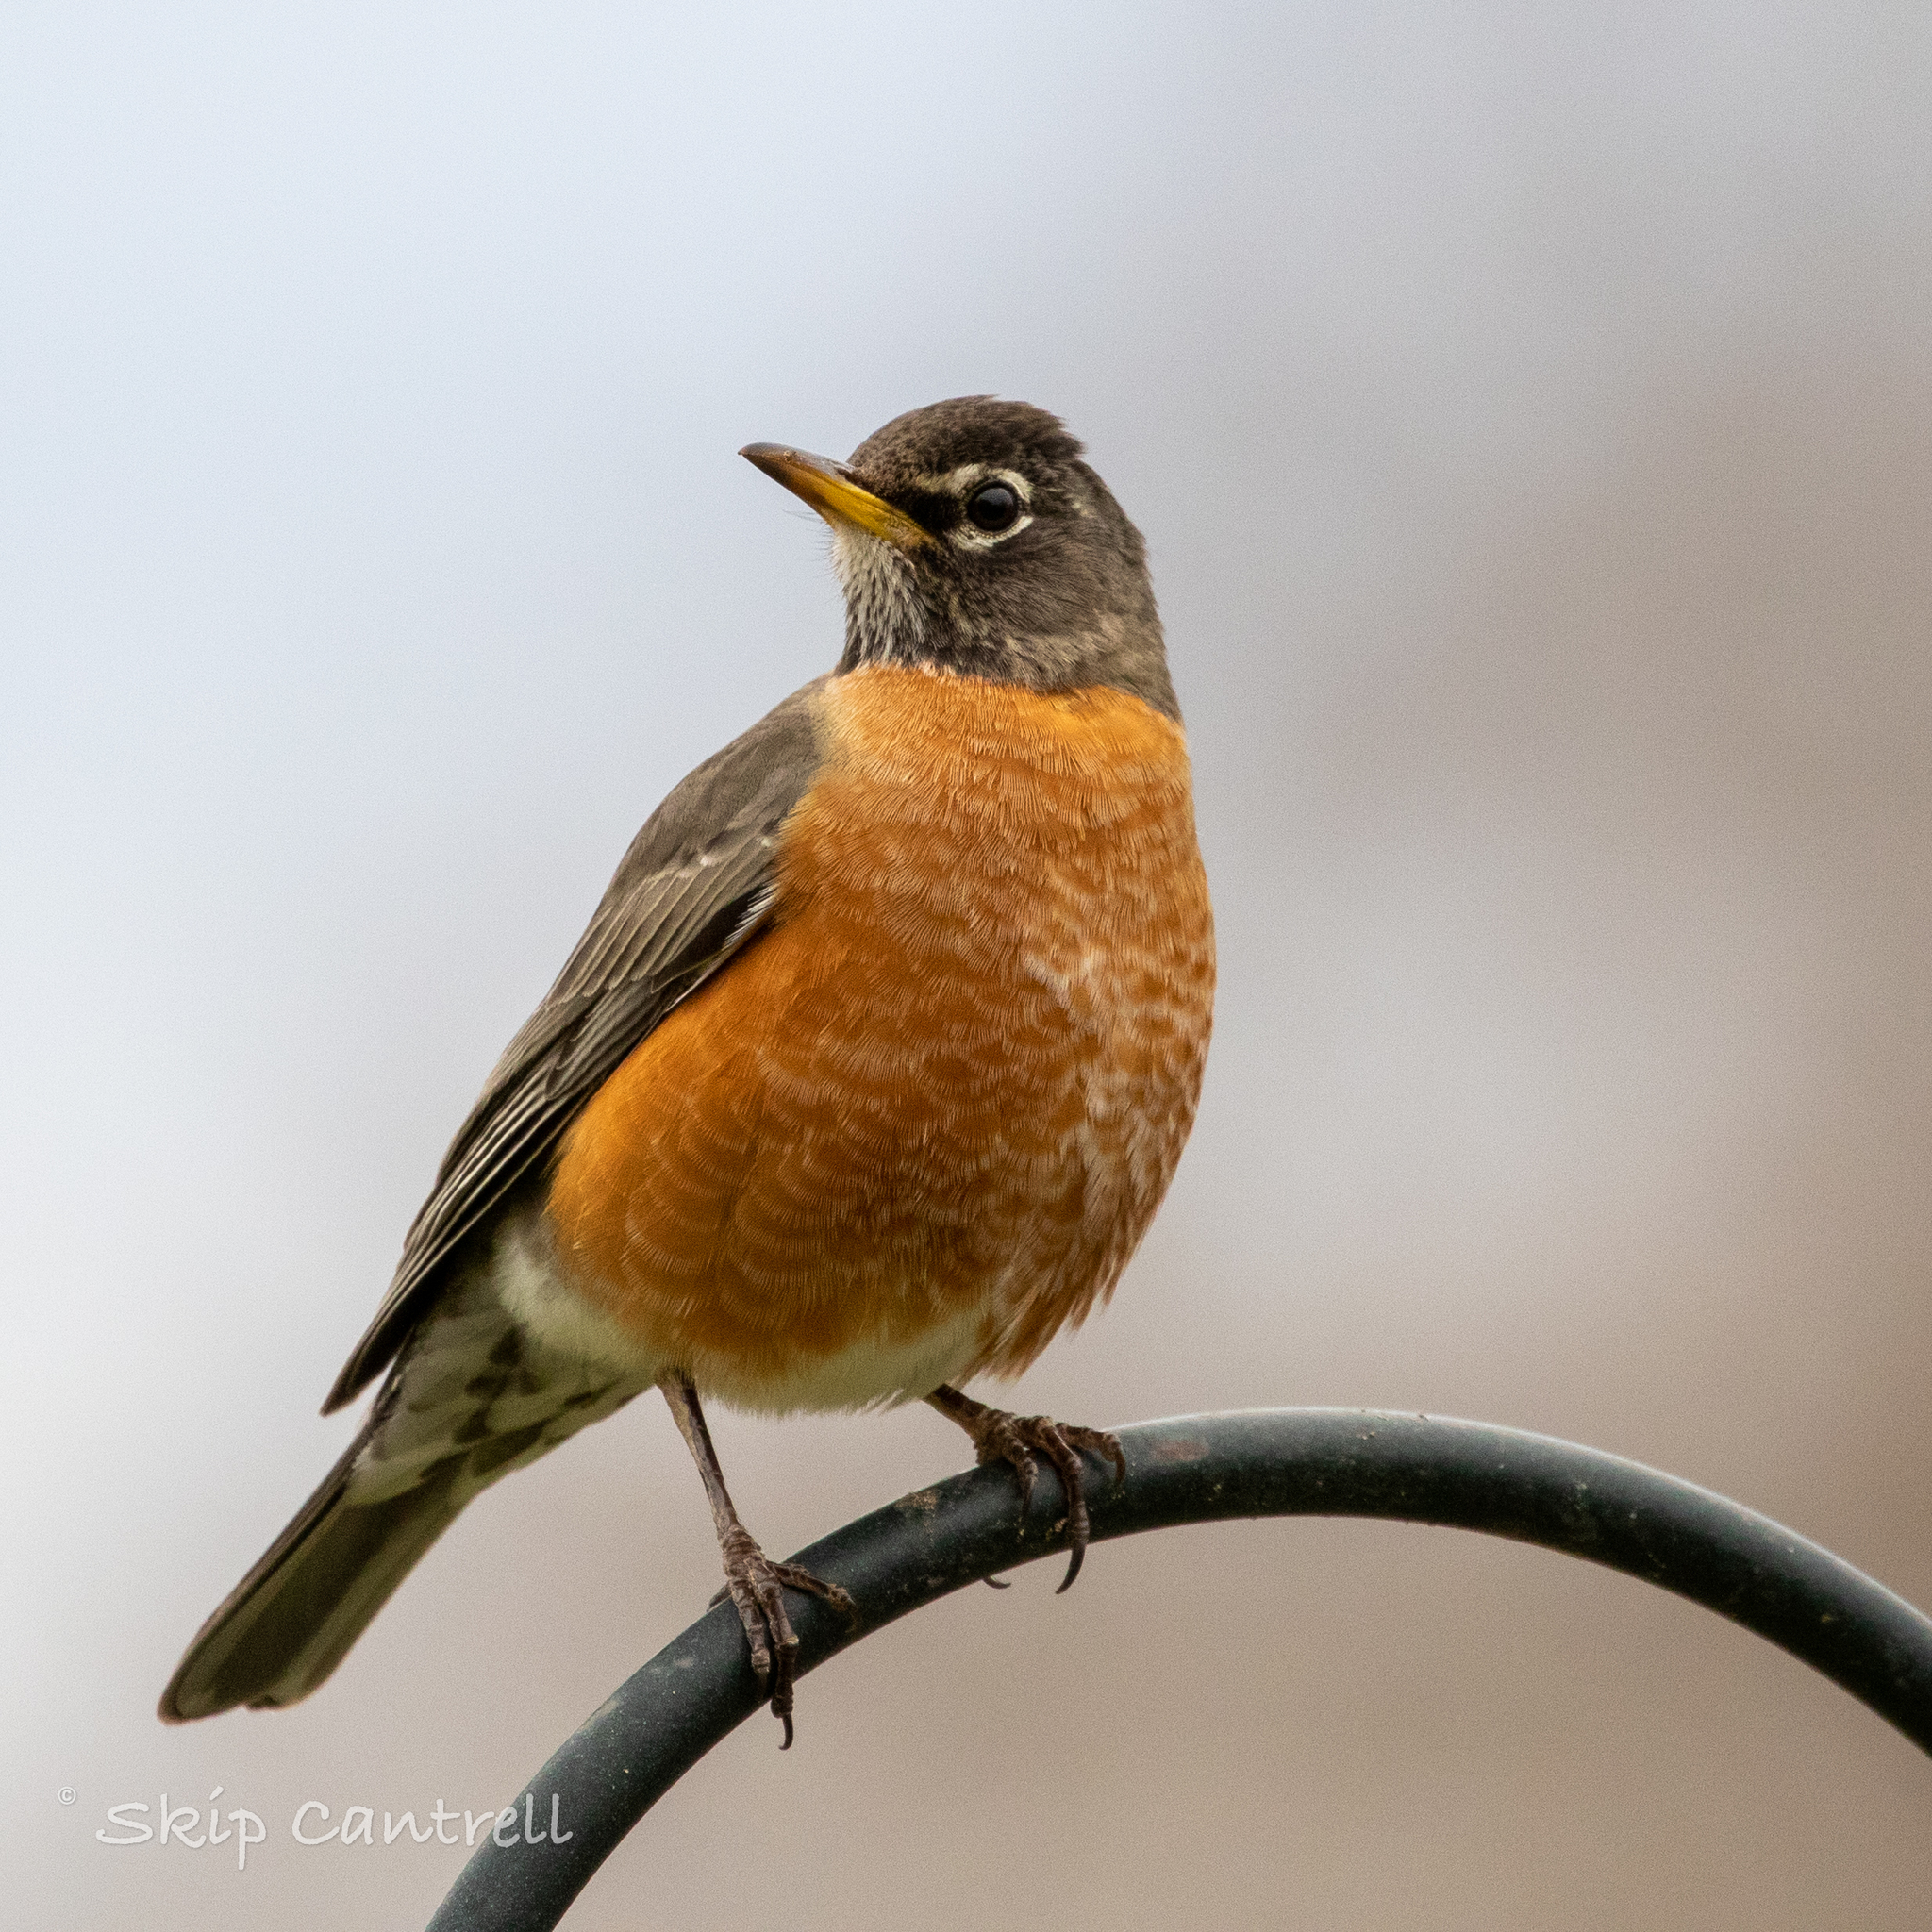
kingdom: Animalia
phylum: Chordata
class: Aves
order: Passeriformes
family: Turdidae
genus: Turdus
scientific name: Turdus migratorius
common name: American robin
